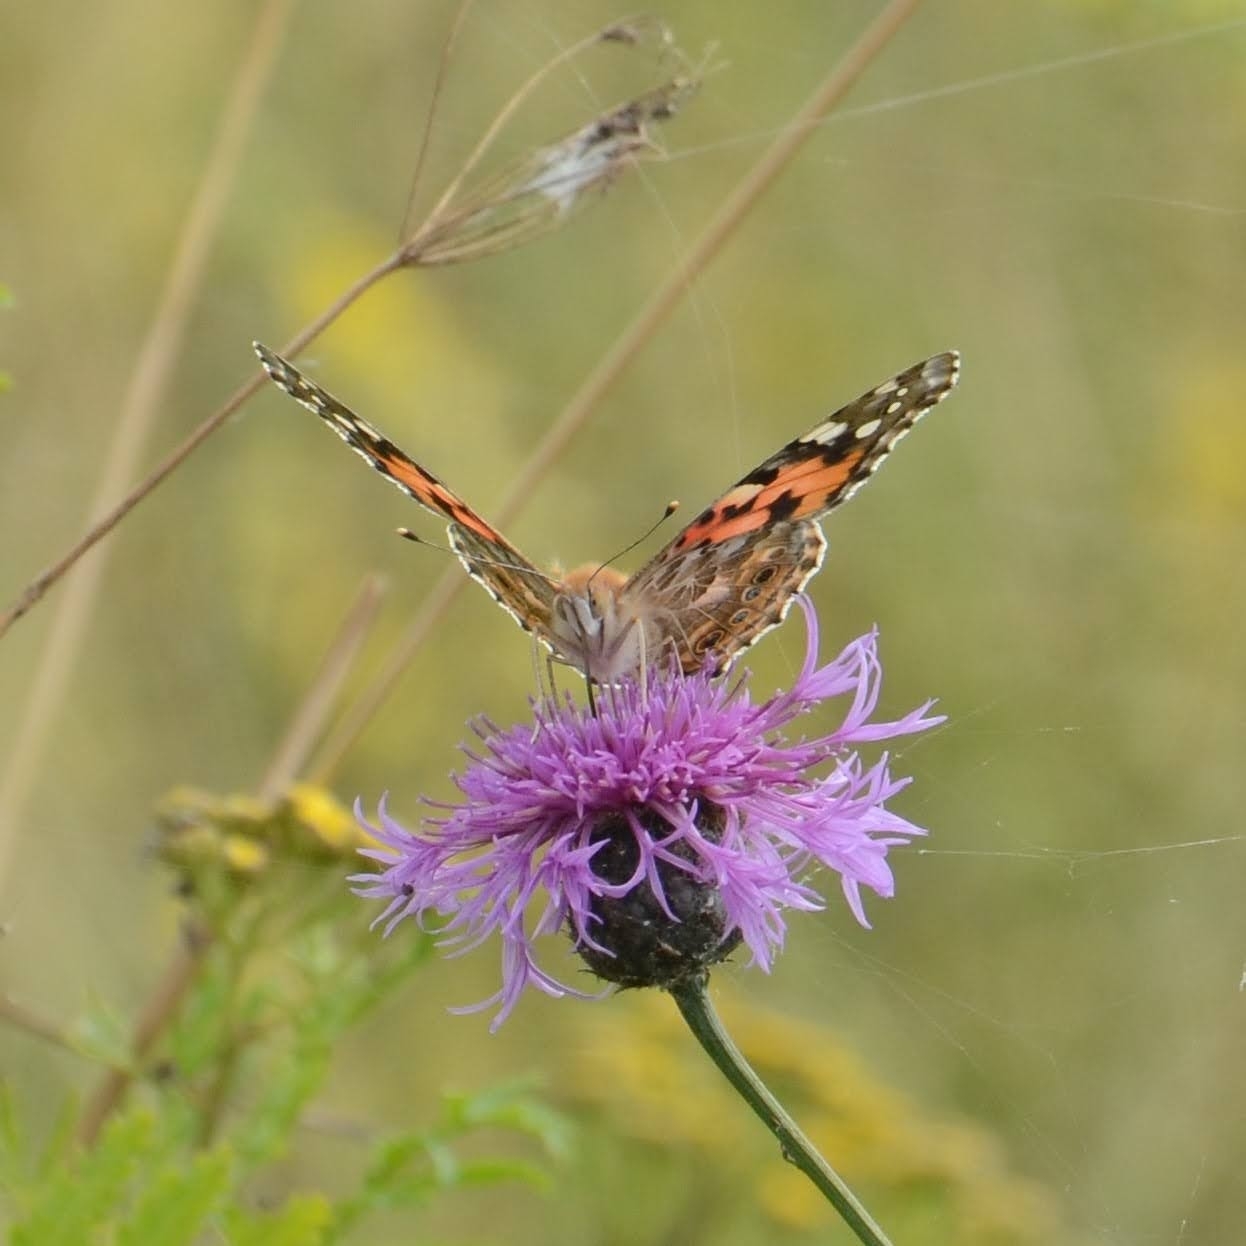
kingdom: Animalia
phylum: Arthropoda
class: Insecta
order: Lepidoptera
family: Nymphalidae
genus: Vanessa
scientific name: Vanessa cardui
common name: Painted lady
